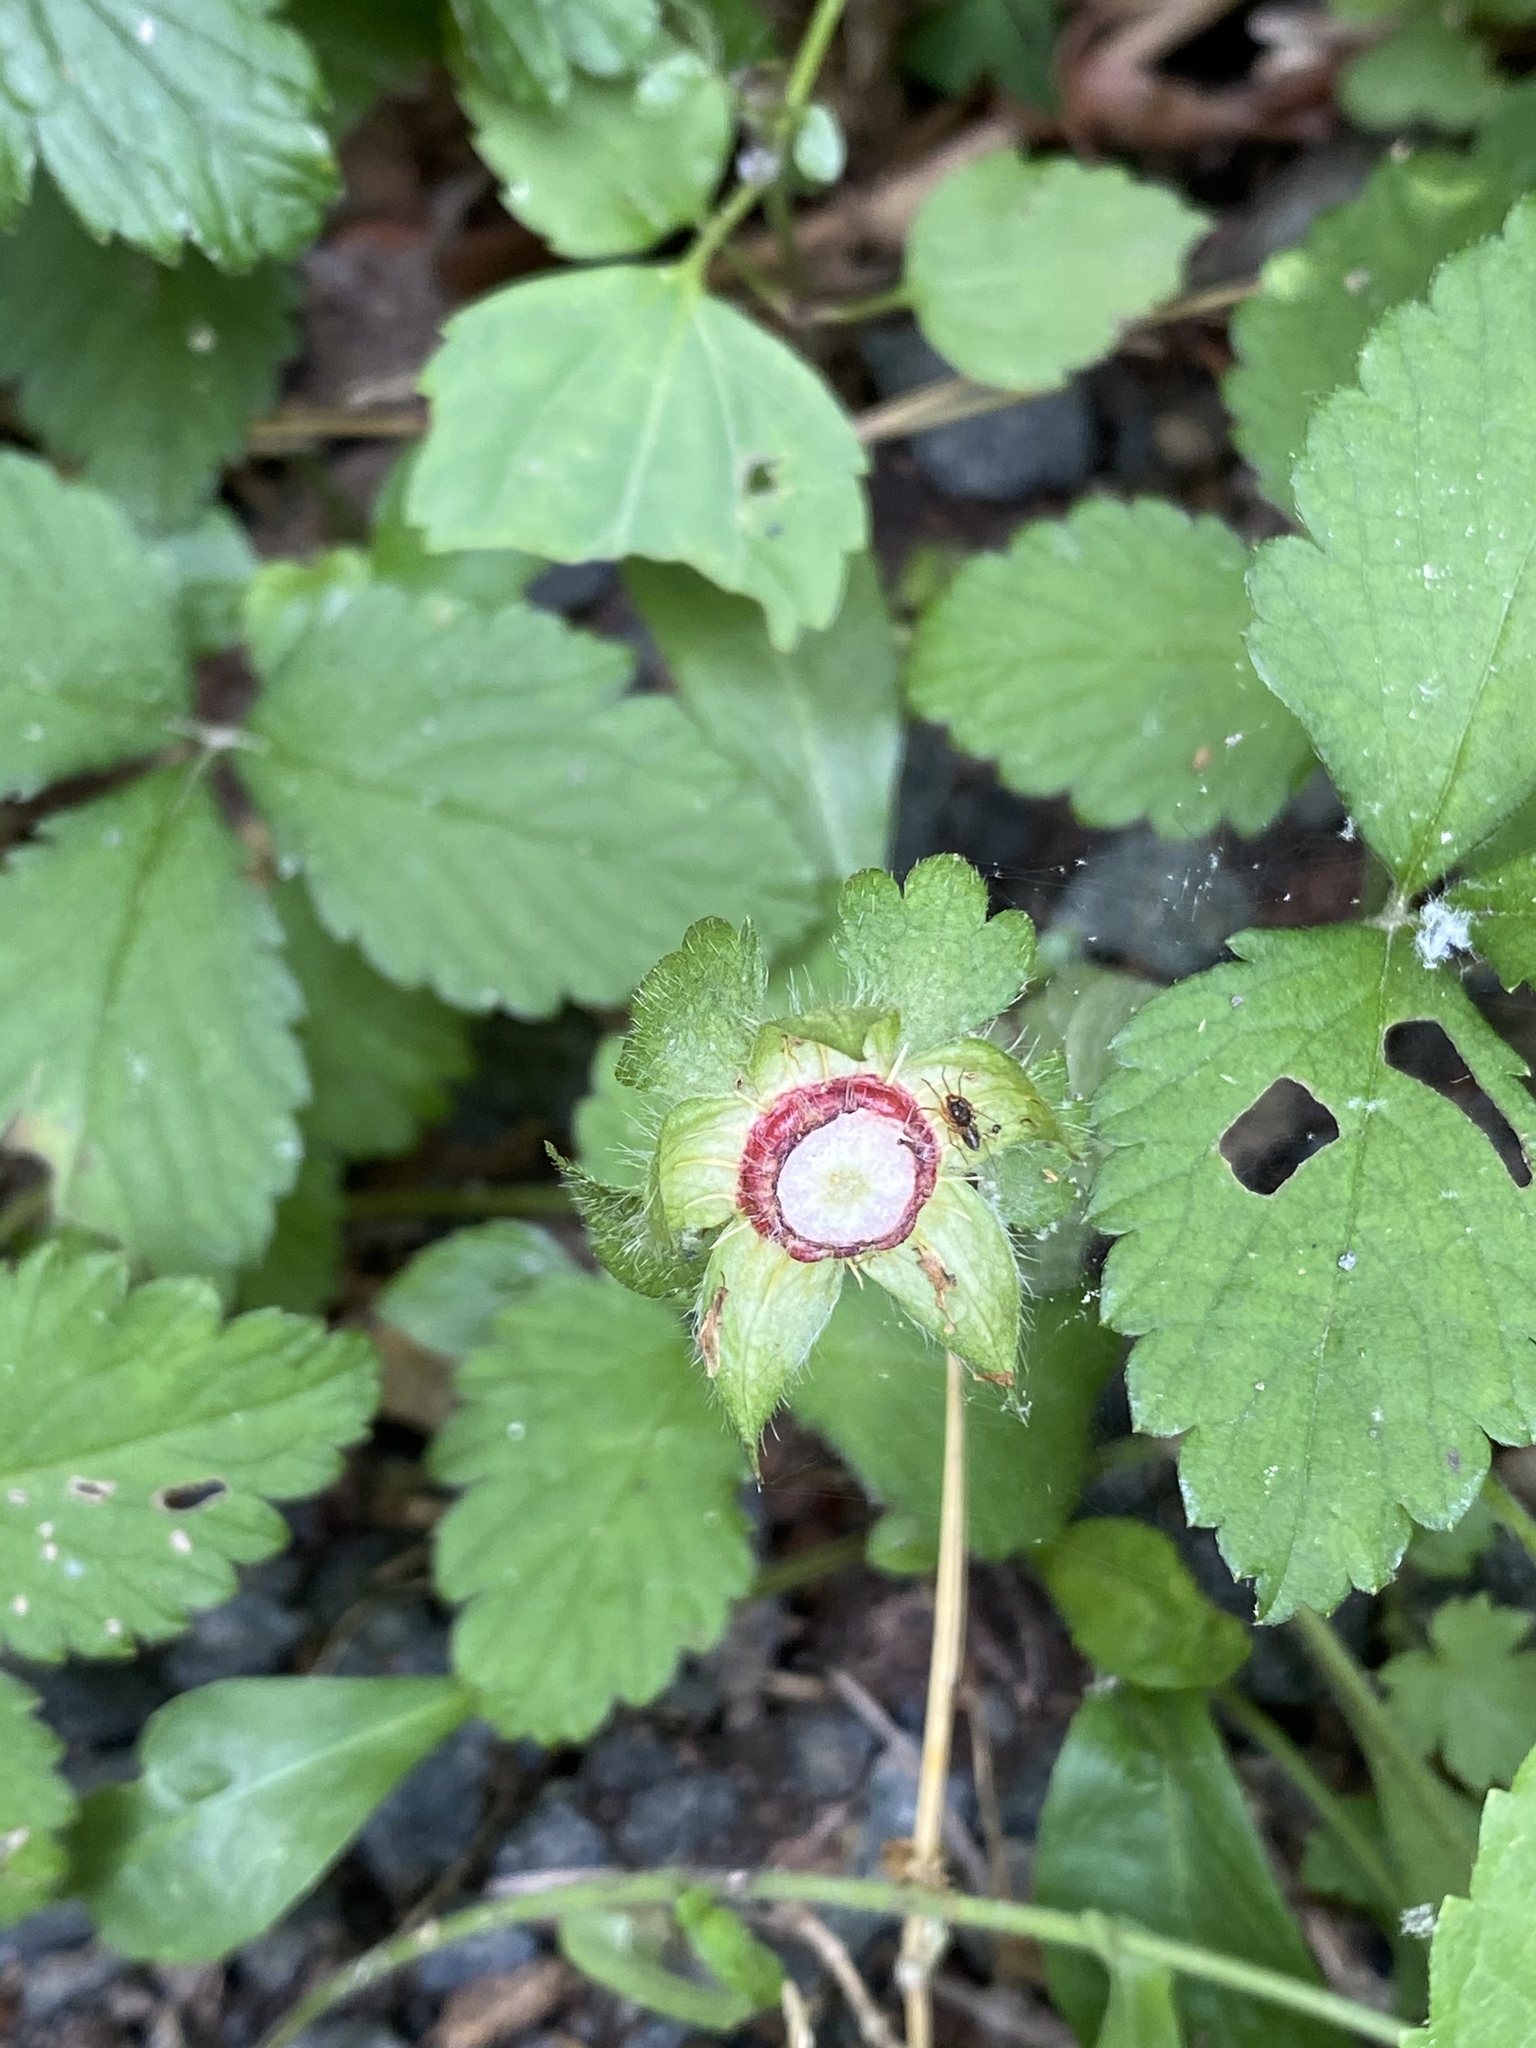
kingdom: Plantae
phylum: Tracheophyta
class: Magnoliopsida
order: Rosales
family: Rosaceae
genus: Potentilla
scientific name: Potentilla indica
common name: Yellow-flowered strawberry
